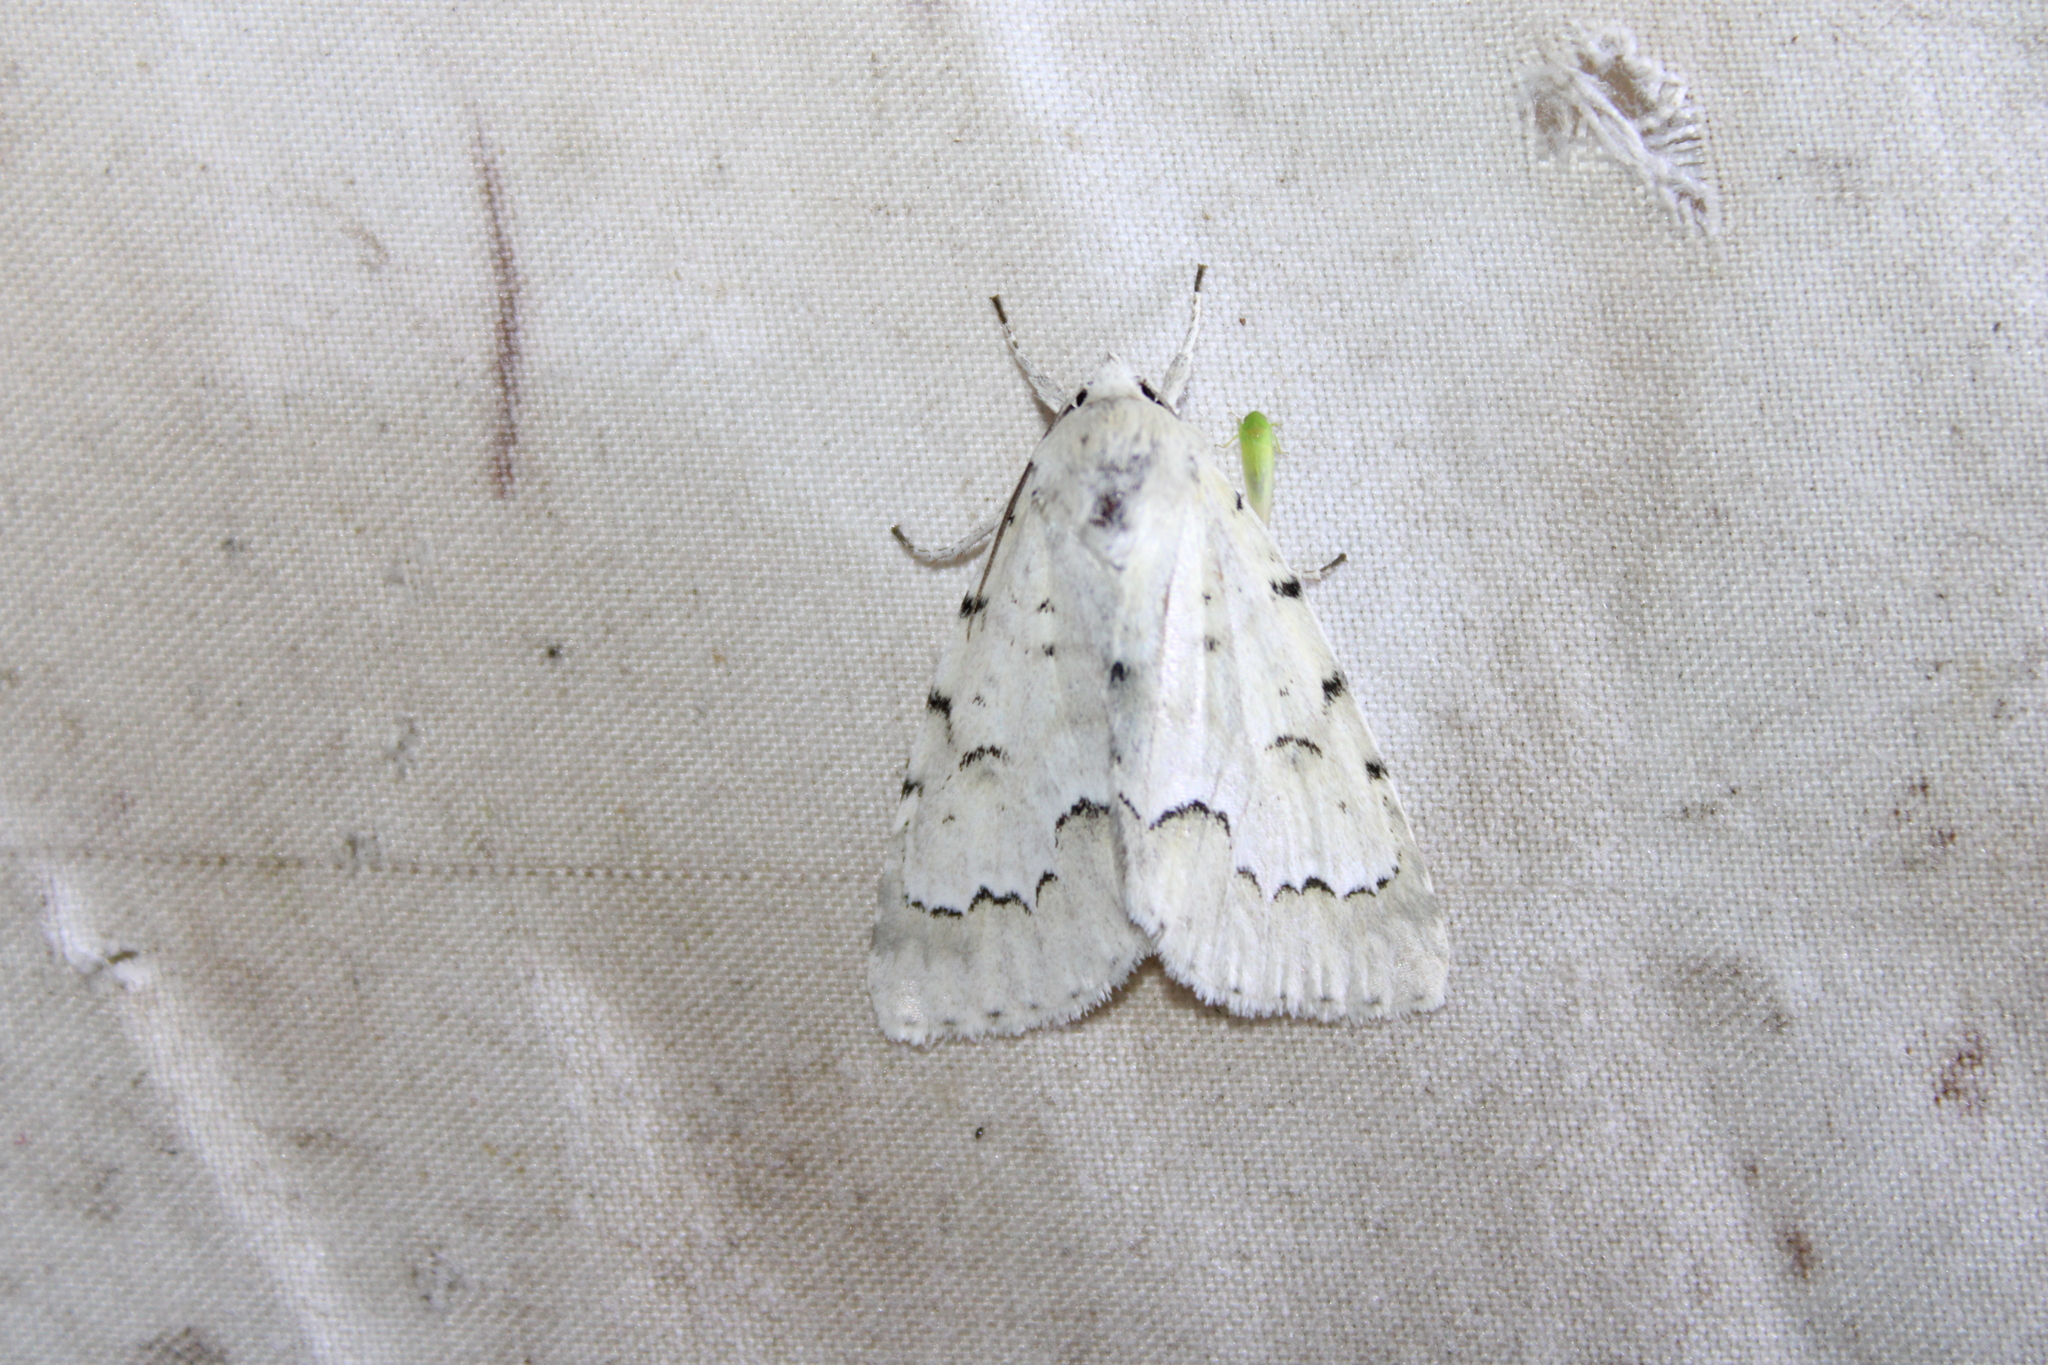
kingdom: Animalia
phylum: Arthropoda
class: Insecta
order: Lepidoptera
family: Noctuidae
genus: Acronicta
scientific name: Acronicta innotata
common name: Unmarked dagger
